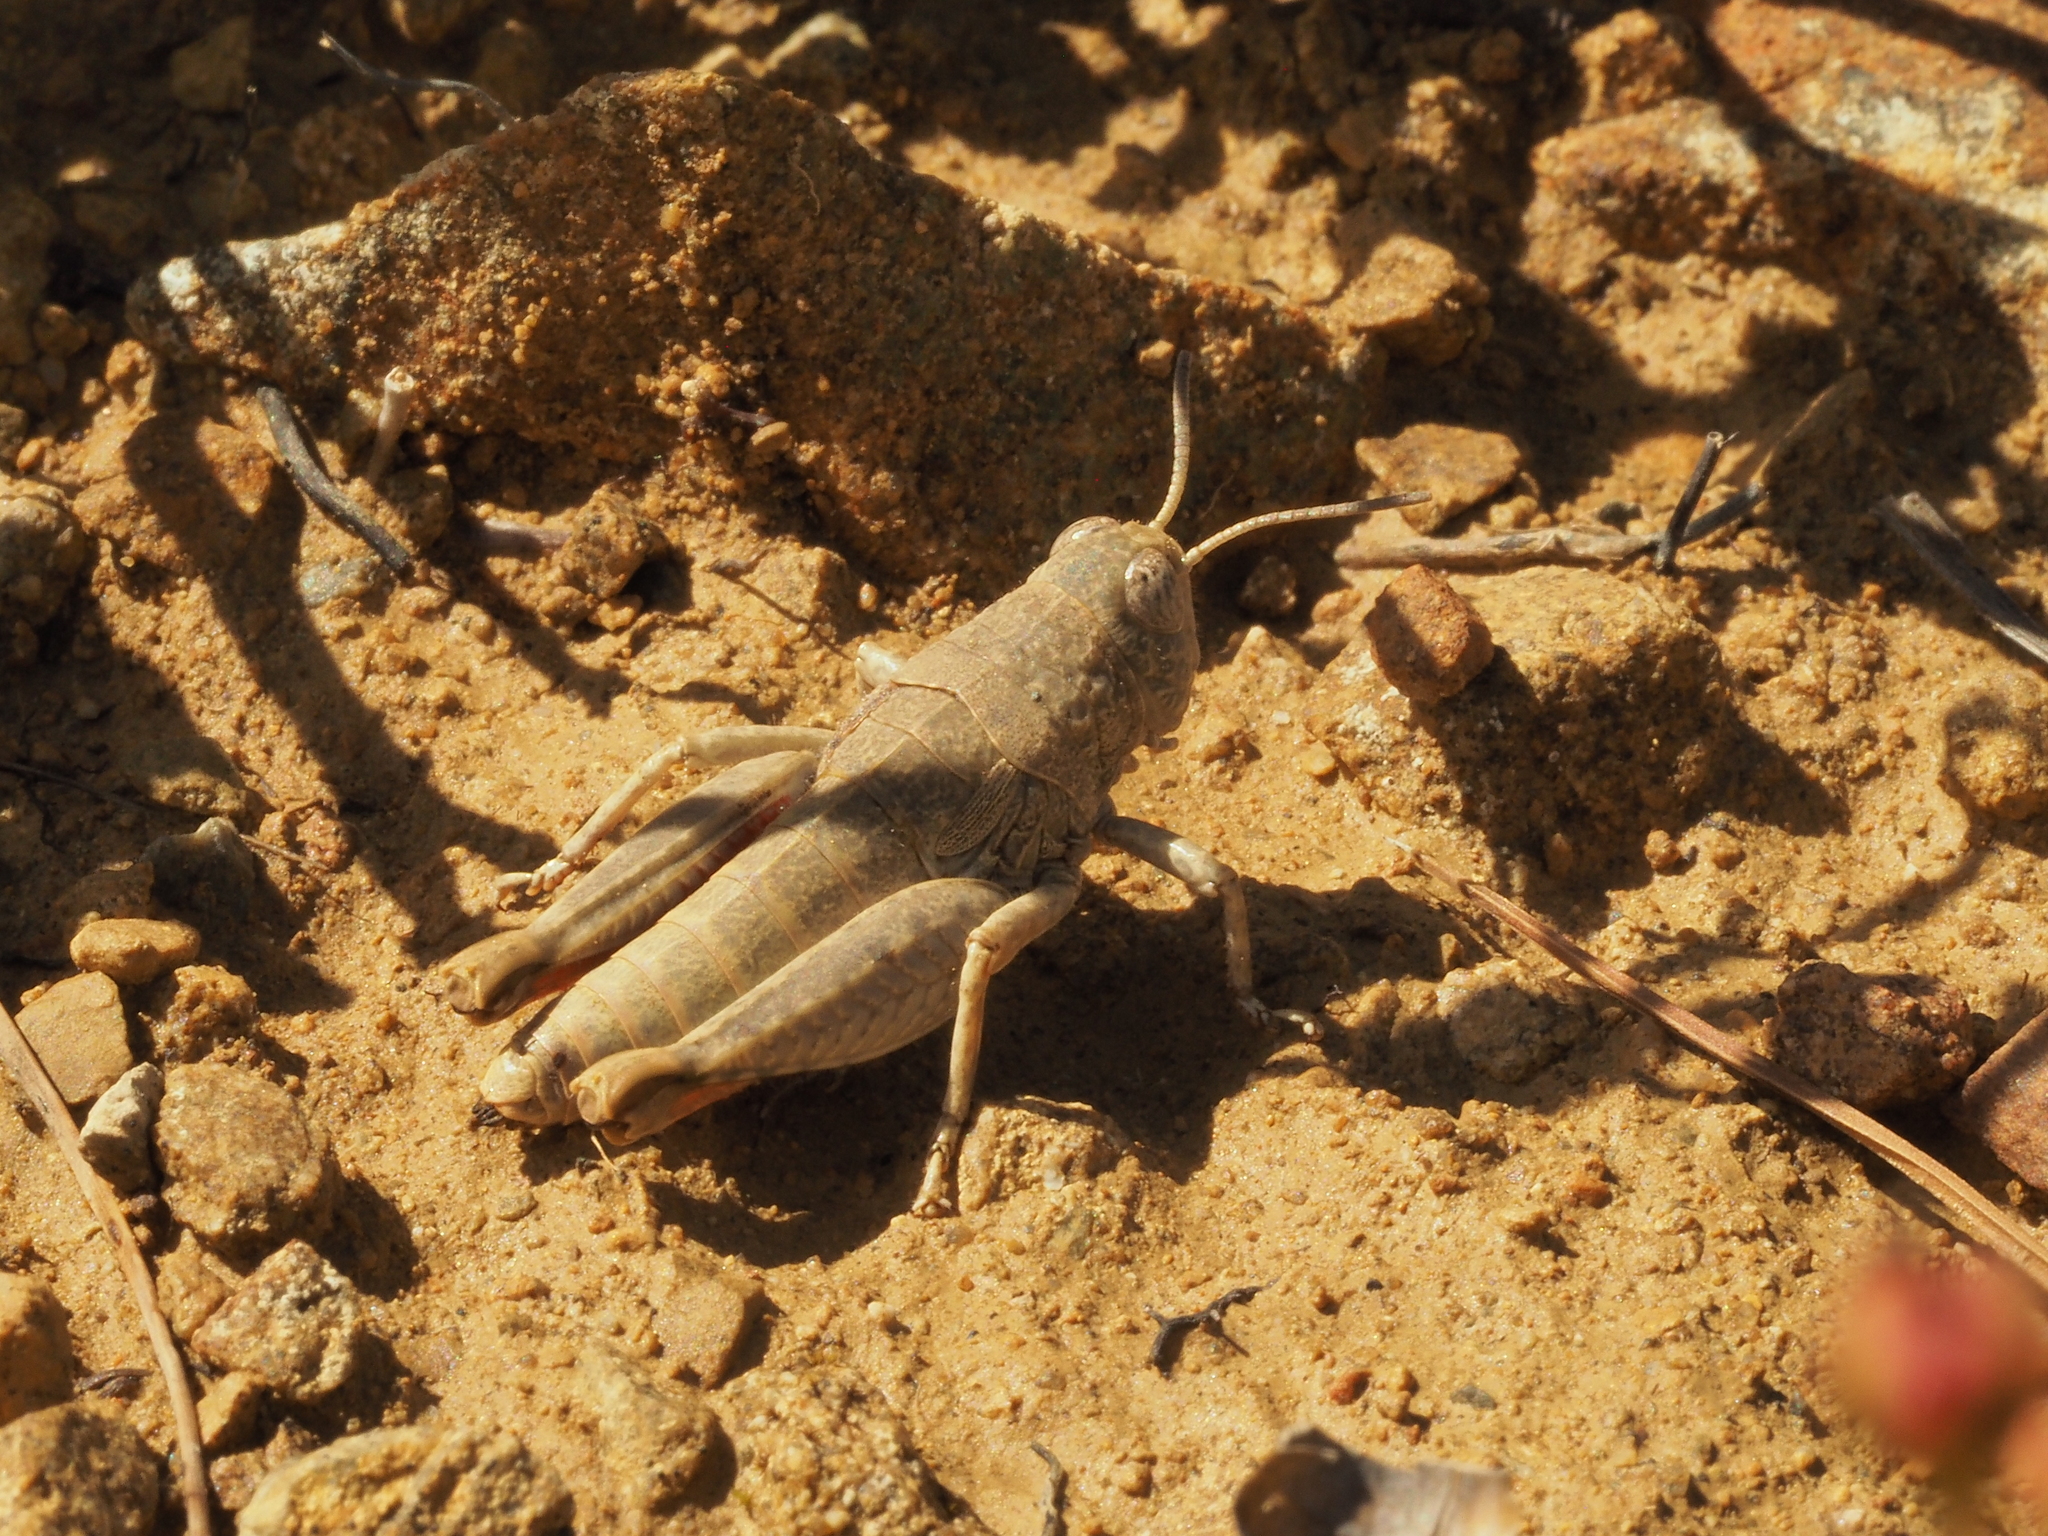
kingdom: Animalia
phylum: Arthropoda
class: Insecta
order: Orthoptera
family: Acrididae
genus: Sigaus
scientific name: Sigaus
